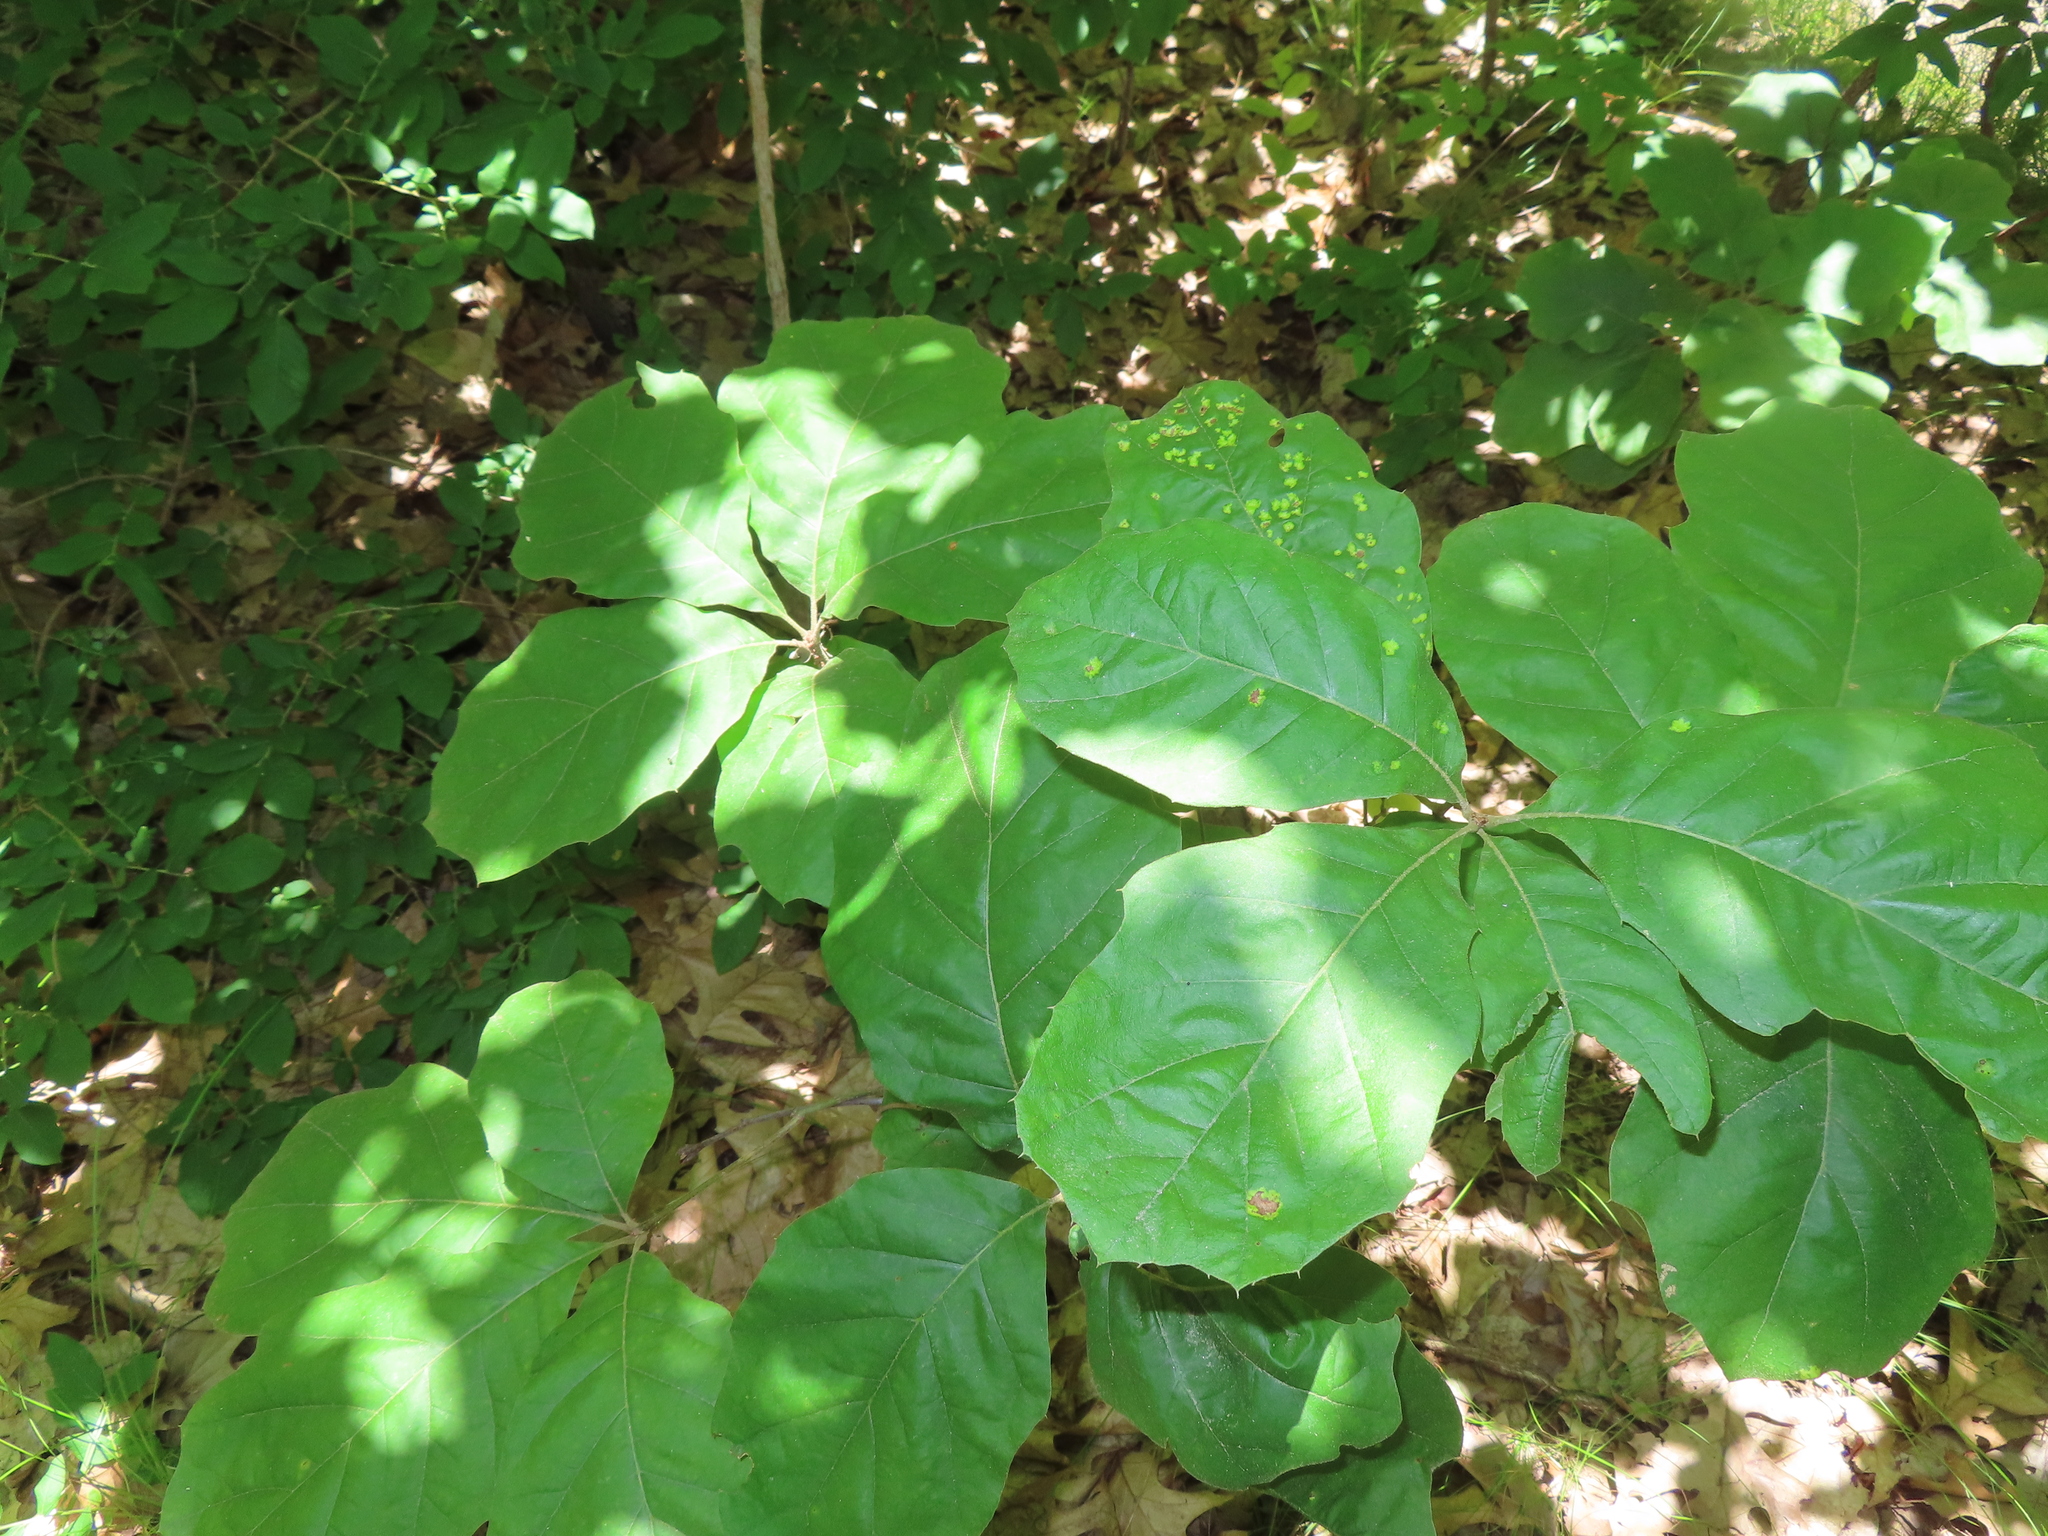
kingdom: Fungi
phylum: Ascomycota
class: Taphrinomycetes
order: Taphrinales
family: Taphrinaceae
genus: Taphrina
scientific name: Taphrina caerulescens
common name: Oak leaf blister
